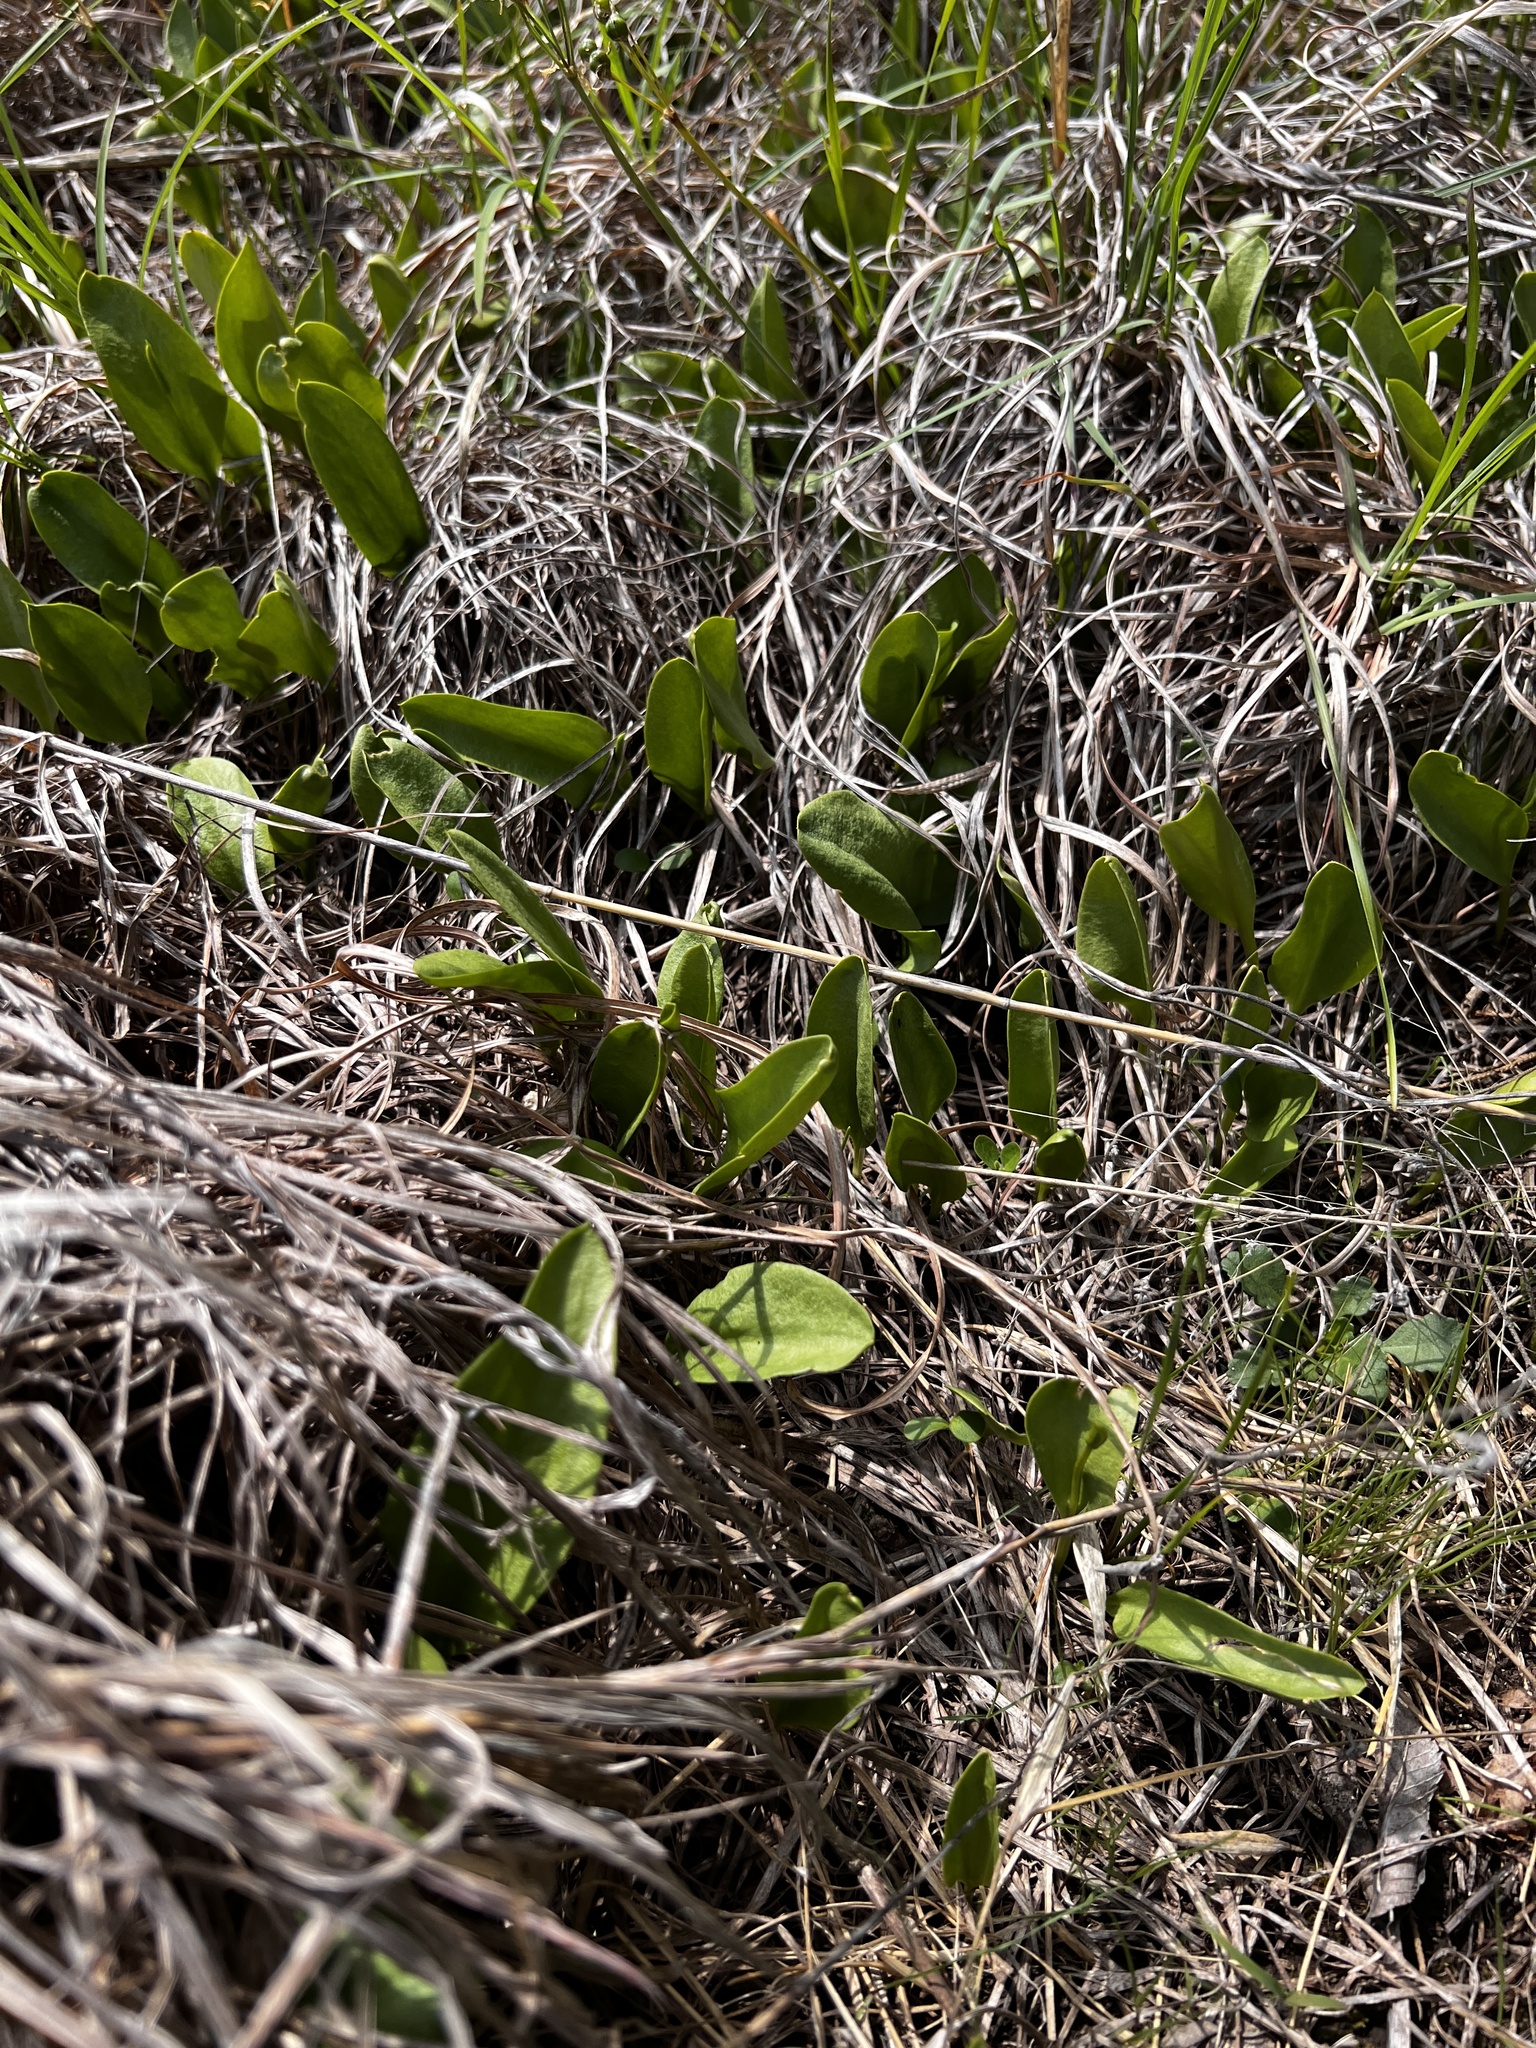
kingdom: Plantae
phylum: Tracheophyta
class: Polypodiopsida
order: Ophioglossales
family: Ophioglossaceae
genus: Ophioglossum
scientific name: Ophioglossum engelmannii
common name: Limestone adder's-tongue
